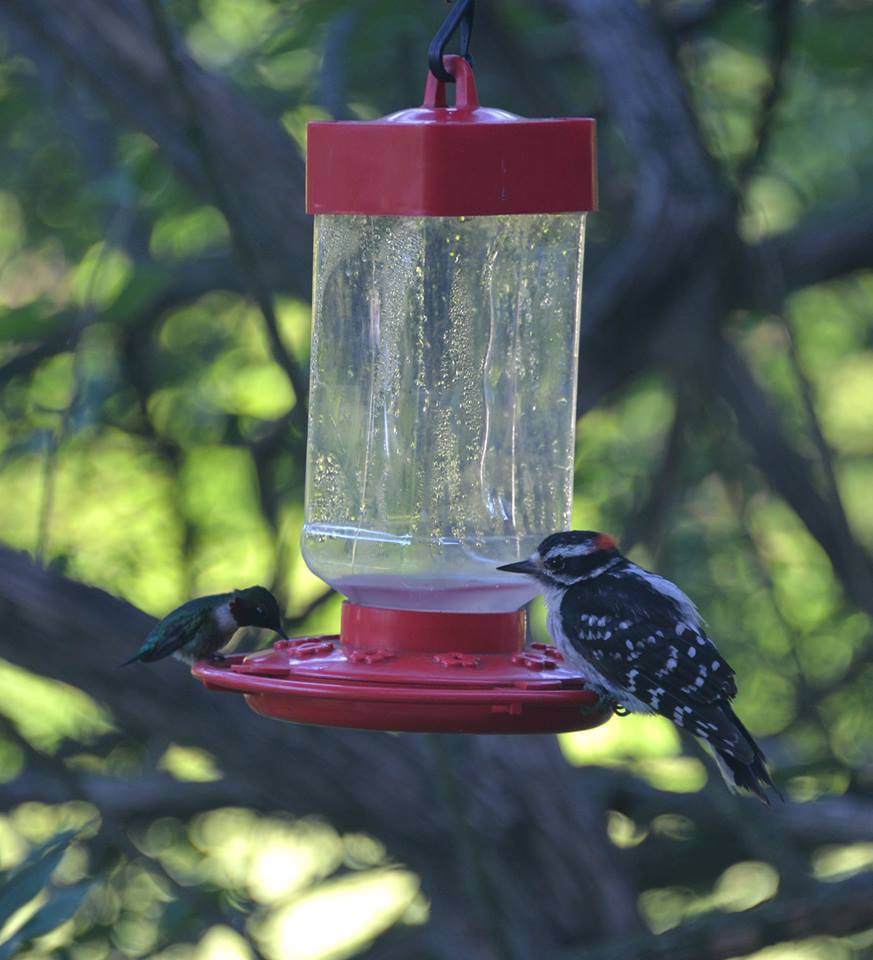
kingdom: Animalia
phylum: Chordata
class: Aves
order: Apodiformes
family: Trochilidae
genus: Archilochus
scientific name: Archilochus colubris
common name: Ruby-throated hummingbird
